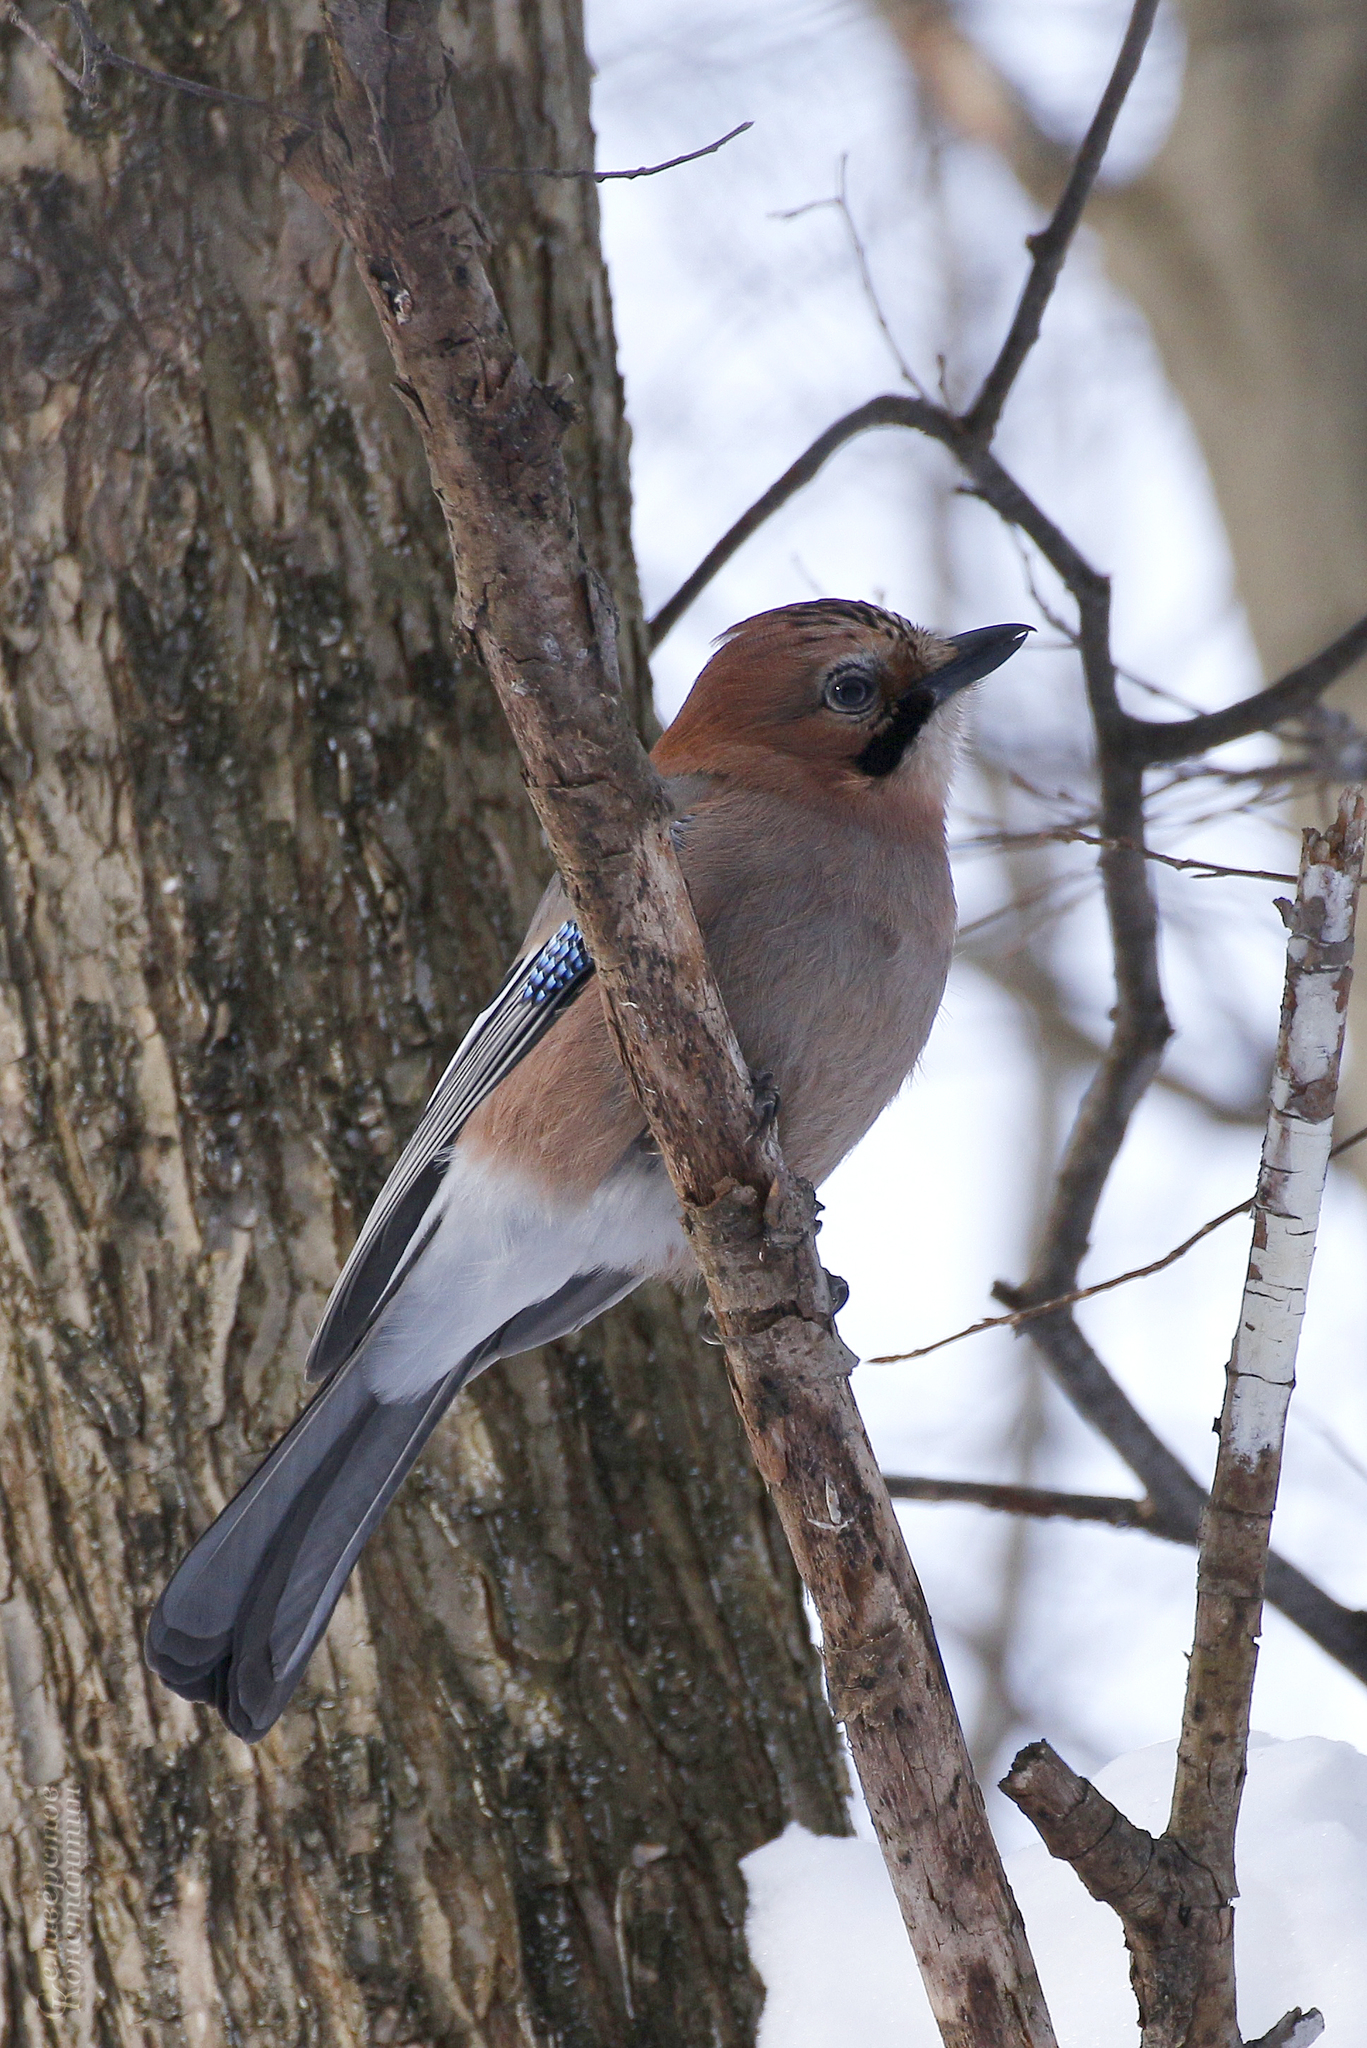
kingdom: Animalia
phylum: Chordata
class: Aves
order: Passeriformes
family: Corvidae
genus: Garrulus
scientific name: Garrulus glandarius
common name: Eurasian jay
